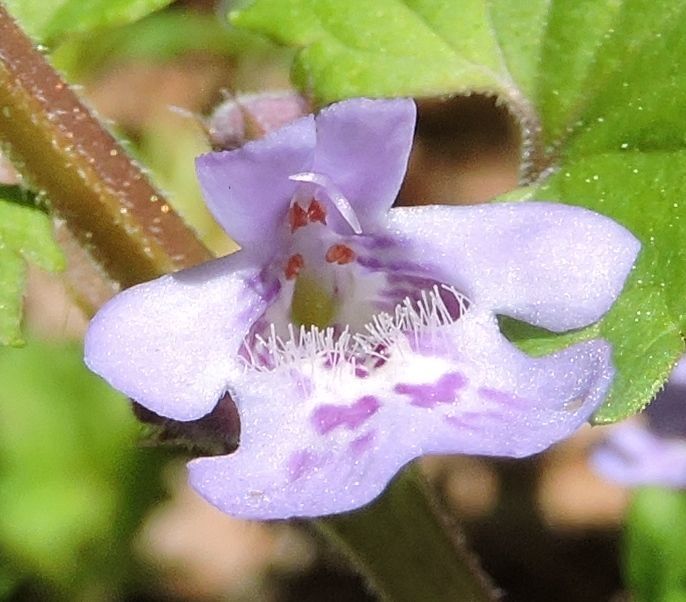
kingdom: Plantae
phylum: Tracheophyta
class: Magnoliopsida
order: Lamiales
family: Lamiaceae
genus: Glechoma
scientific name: Glechoma hederacea
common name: Ground ivy
